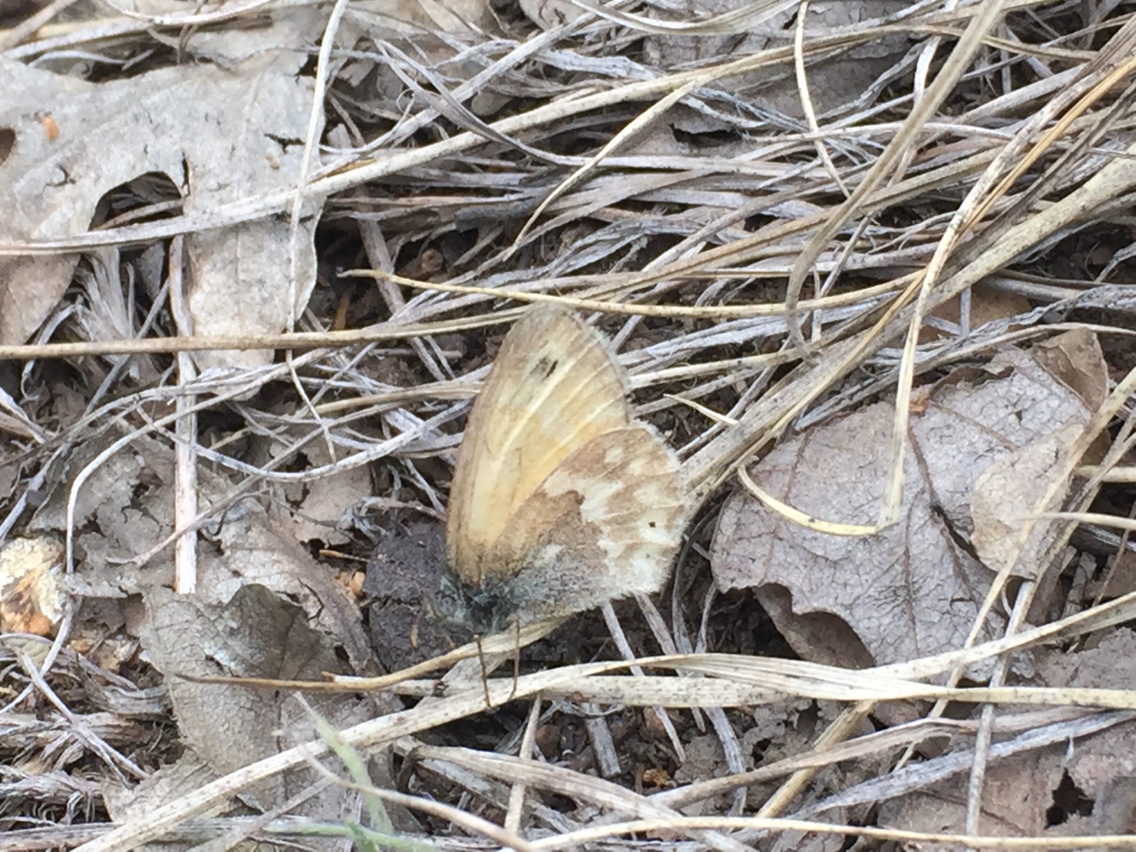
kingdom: Animalia
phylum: Arthropoda
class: Insecta
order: Lepidoptera
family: Nymphalidae
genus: Coenonympha
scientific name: Coenonympha california
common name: Common ringlet
